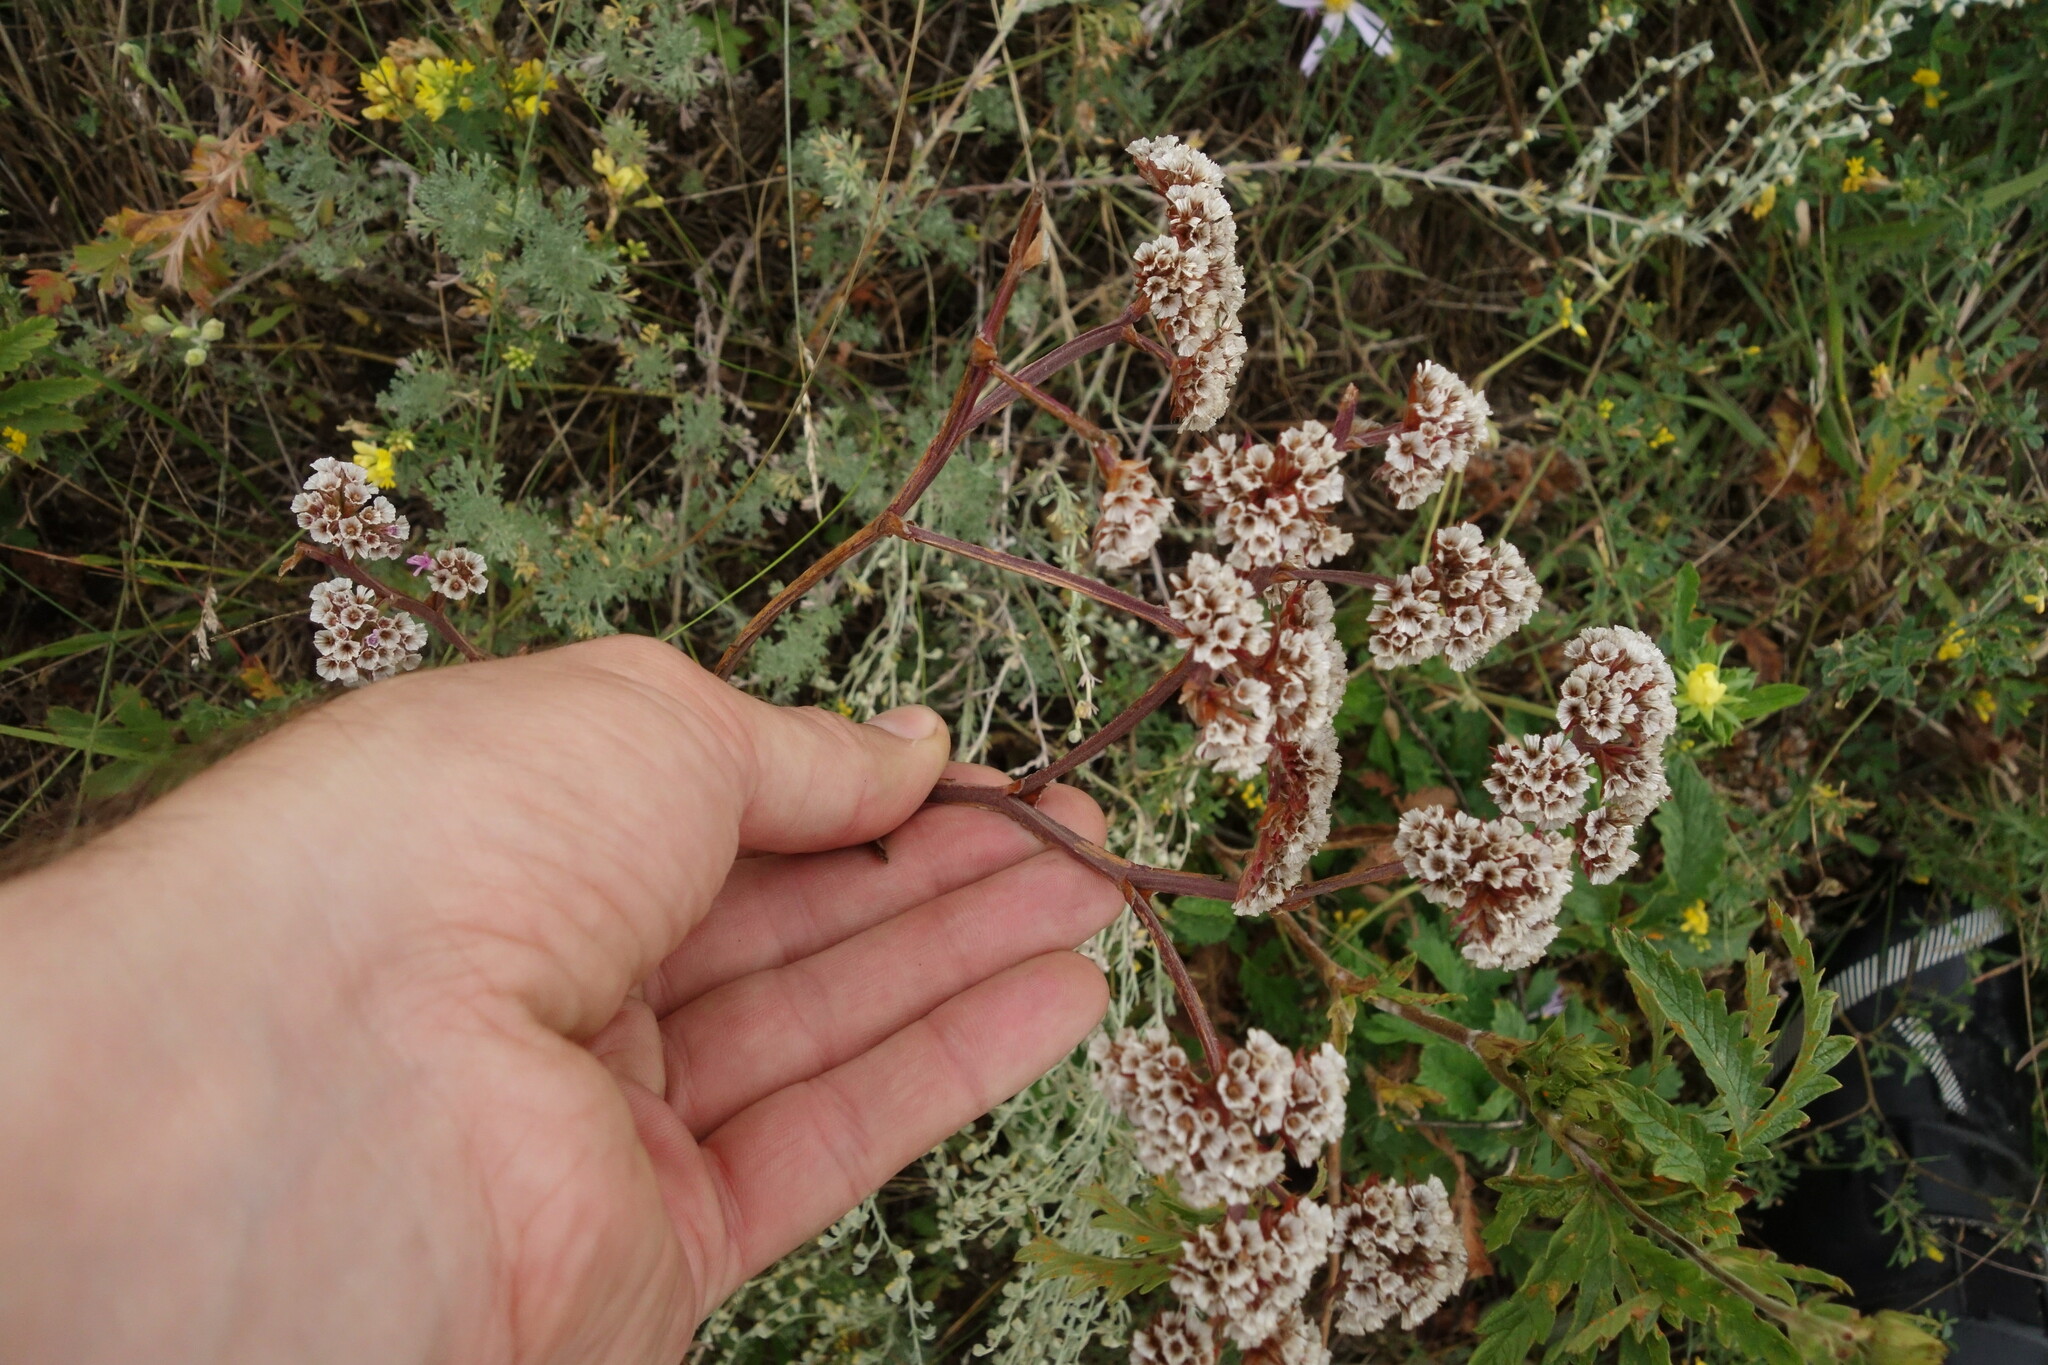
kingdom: Plantae
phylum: Tracheophyta
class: Magnoliopsida
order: Caryophyllales
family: Plumbaginaceae
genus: Goniolimon
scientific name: Goniolimon speciosum
